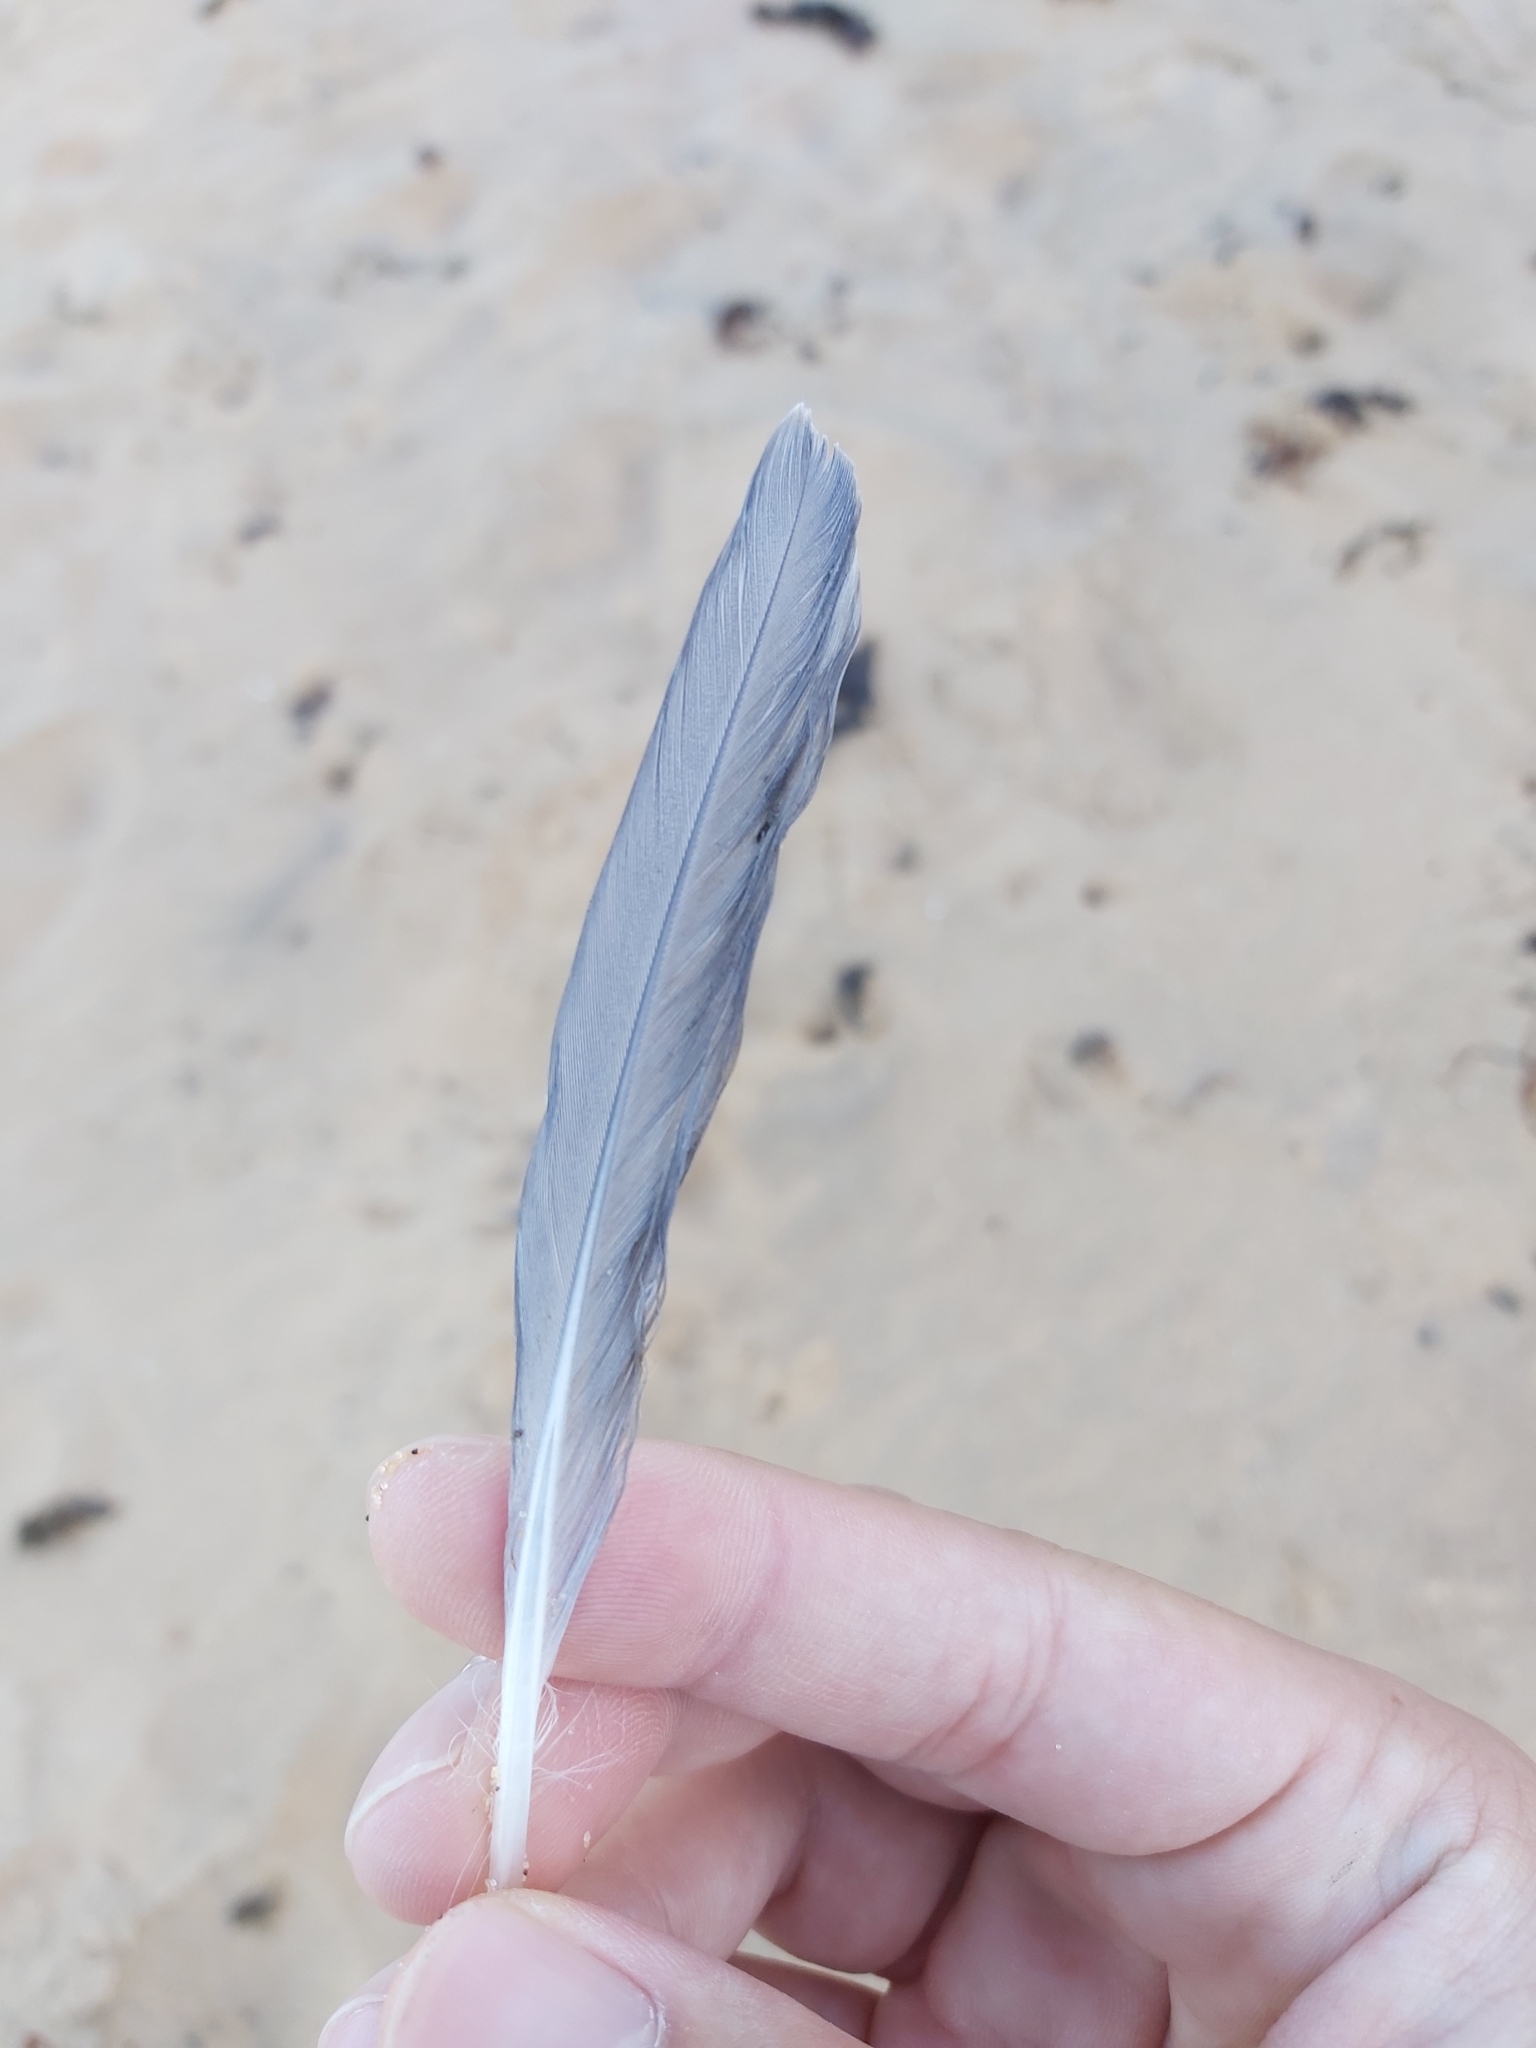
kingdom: Animalia
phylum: Chordata
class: Aves
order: Charadriiformes
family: Laridae
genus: Chroicocephalus
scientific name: Chroicocephalus novaehollandiae
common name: Silver gull
